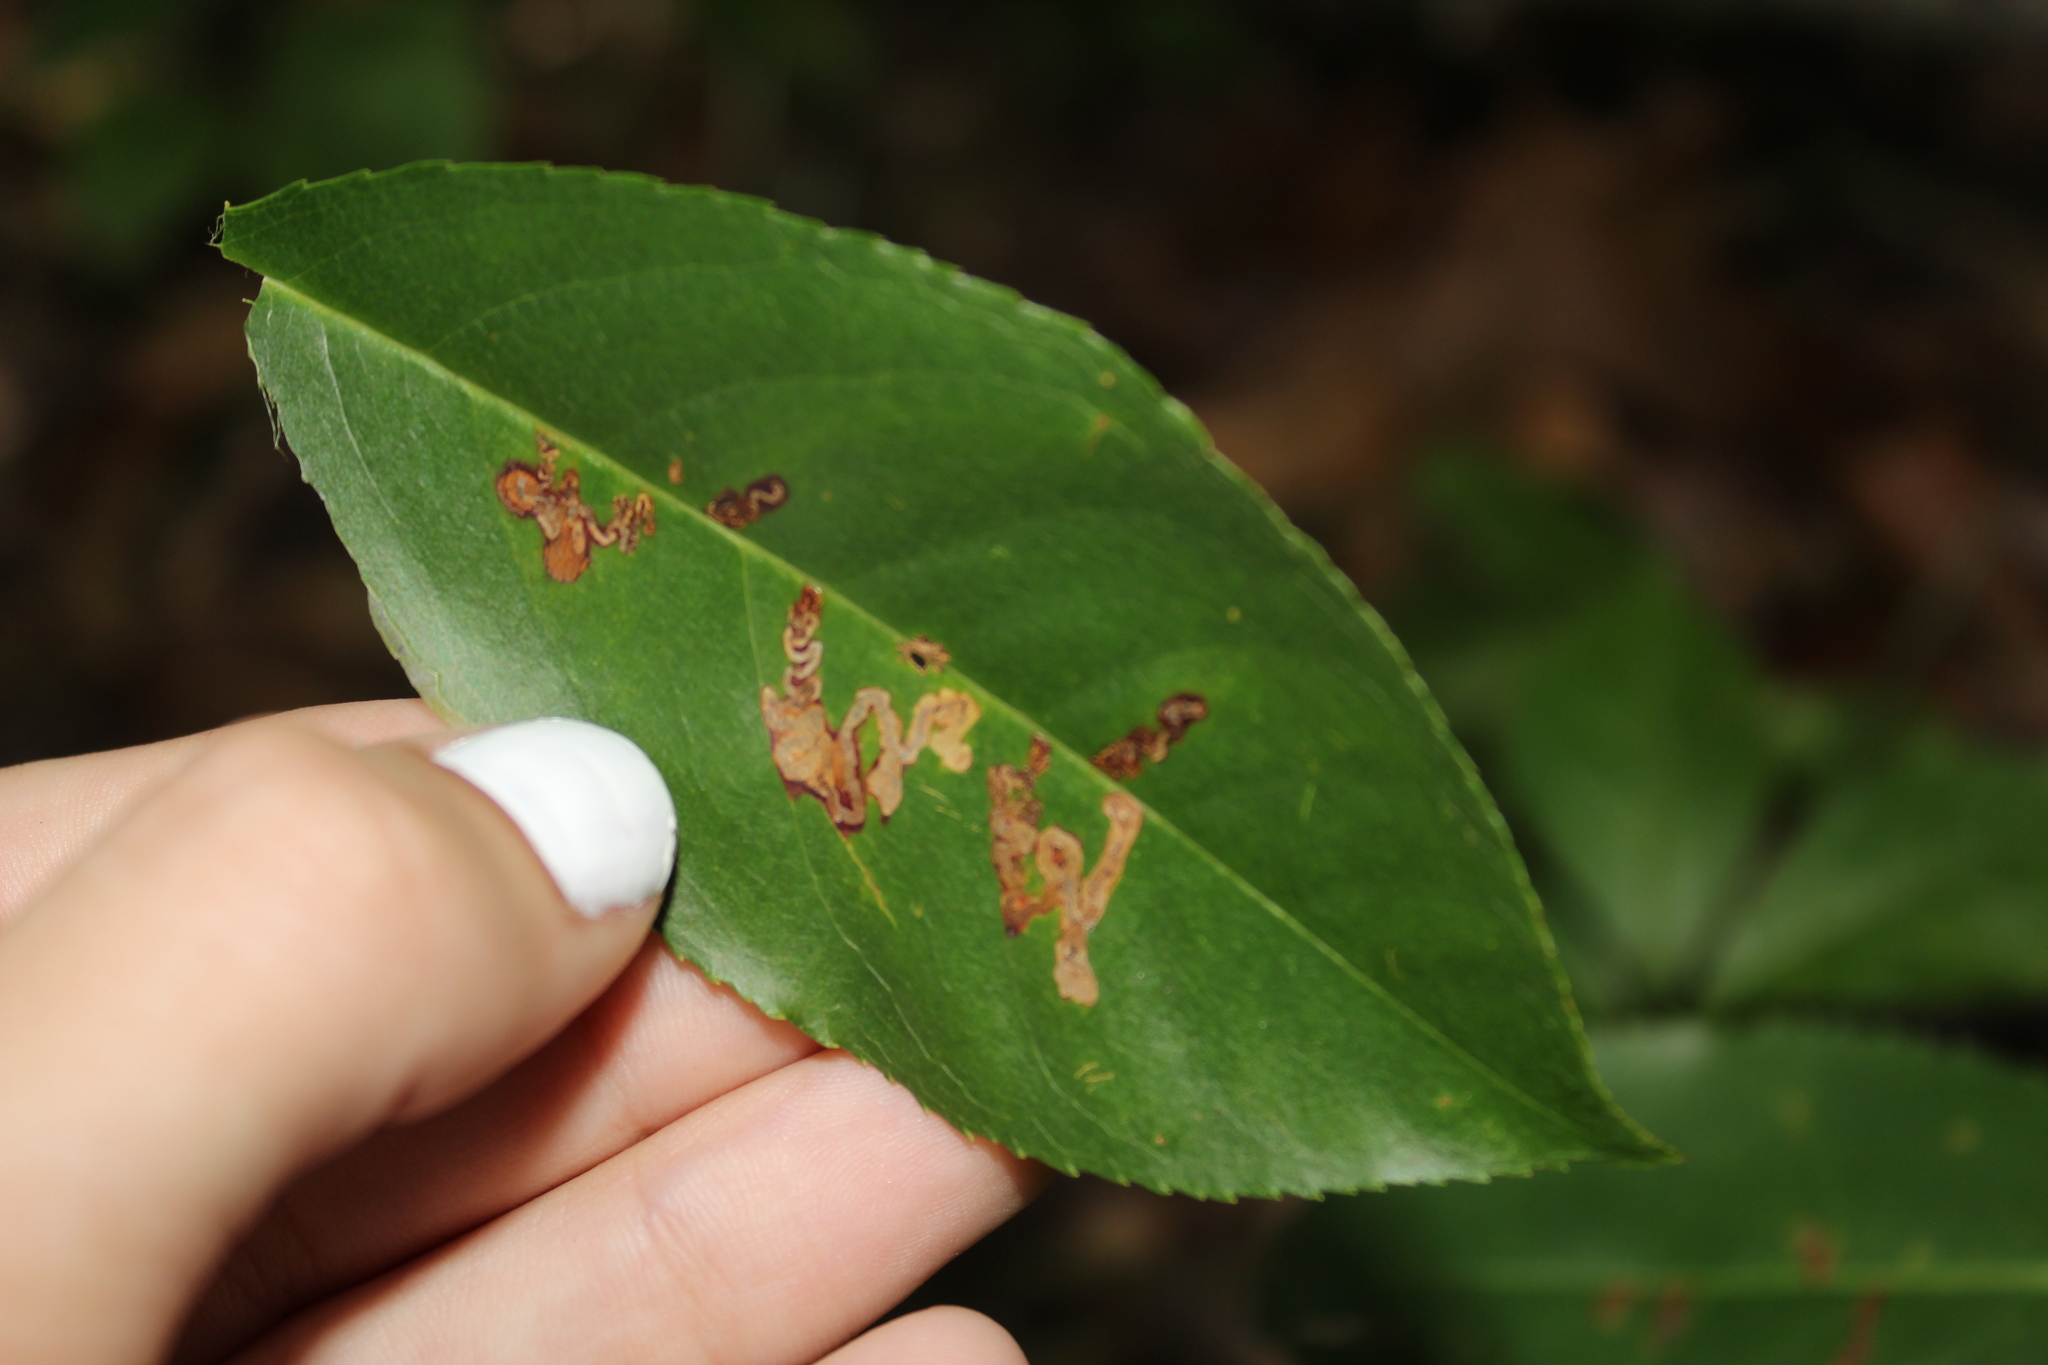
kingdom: Animalia
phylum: Arthropoda
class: Insecta
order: Lepidoptera
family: Nepticulidae
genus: Stigmella
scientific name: Stigmella prunifoliella
